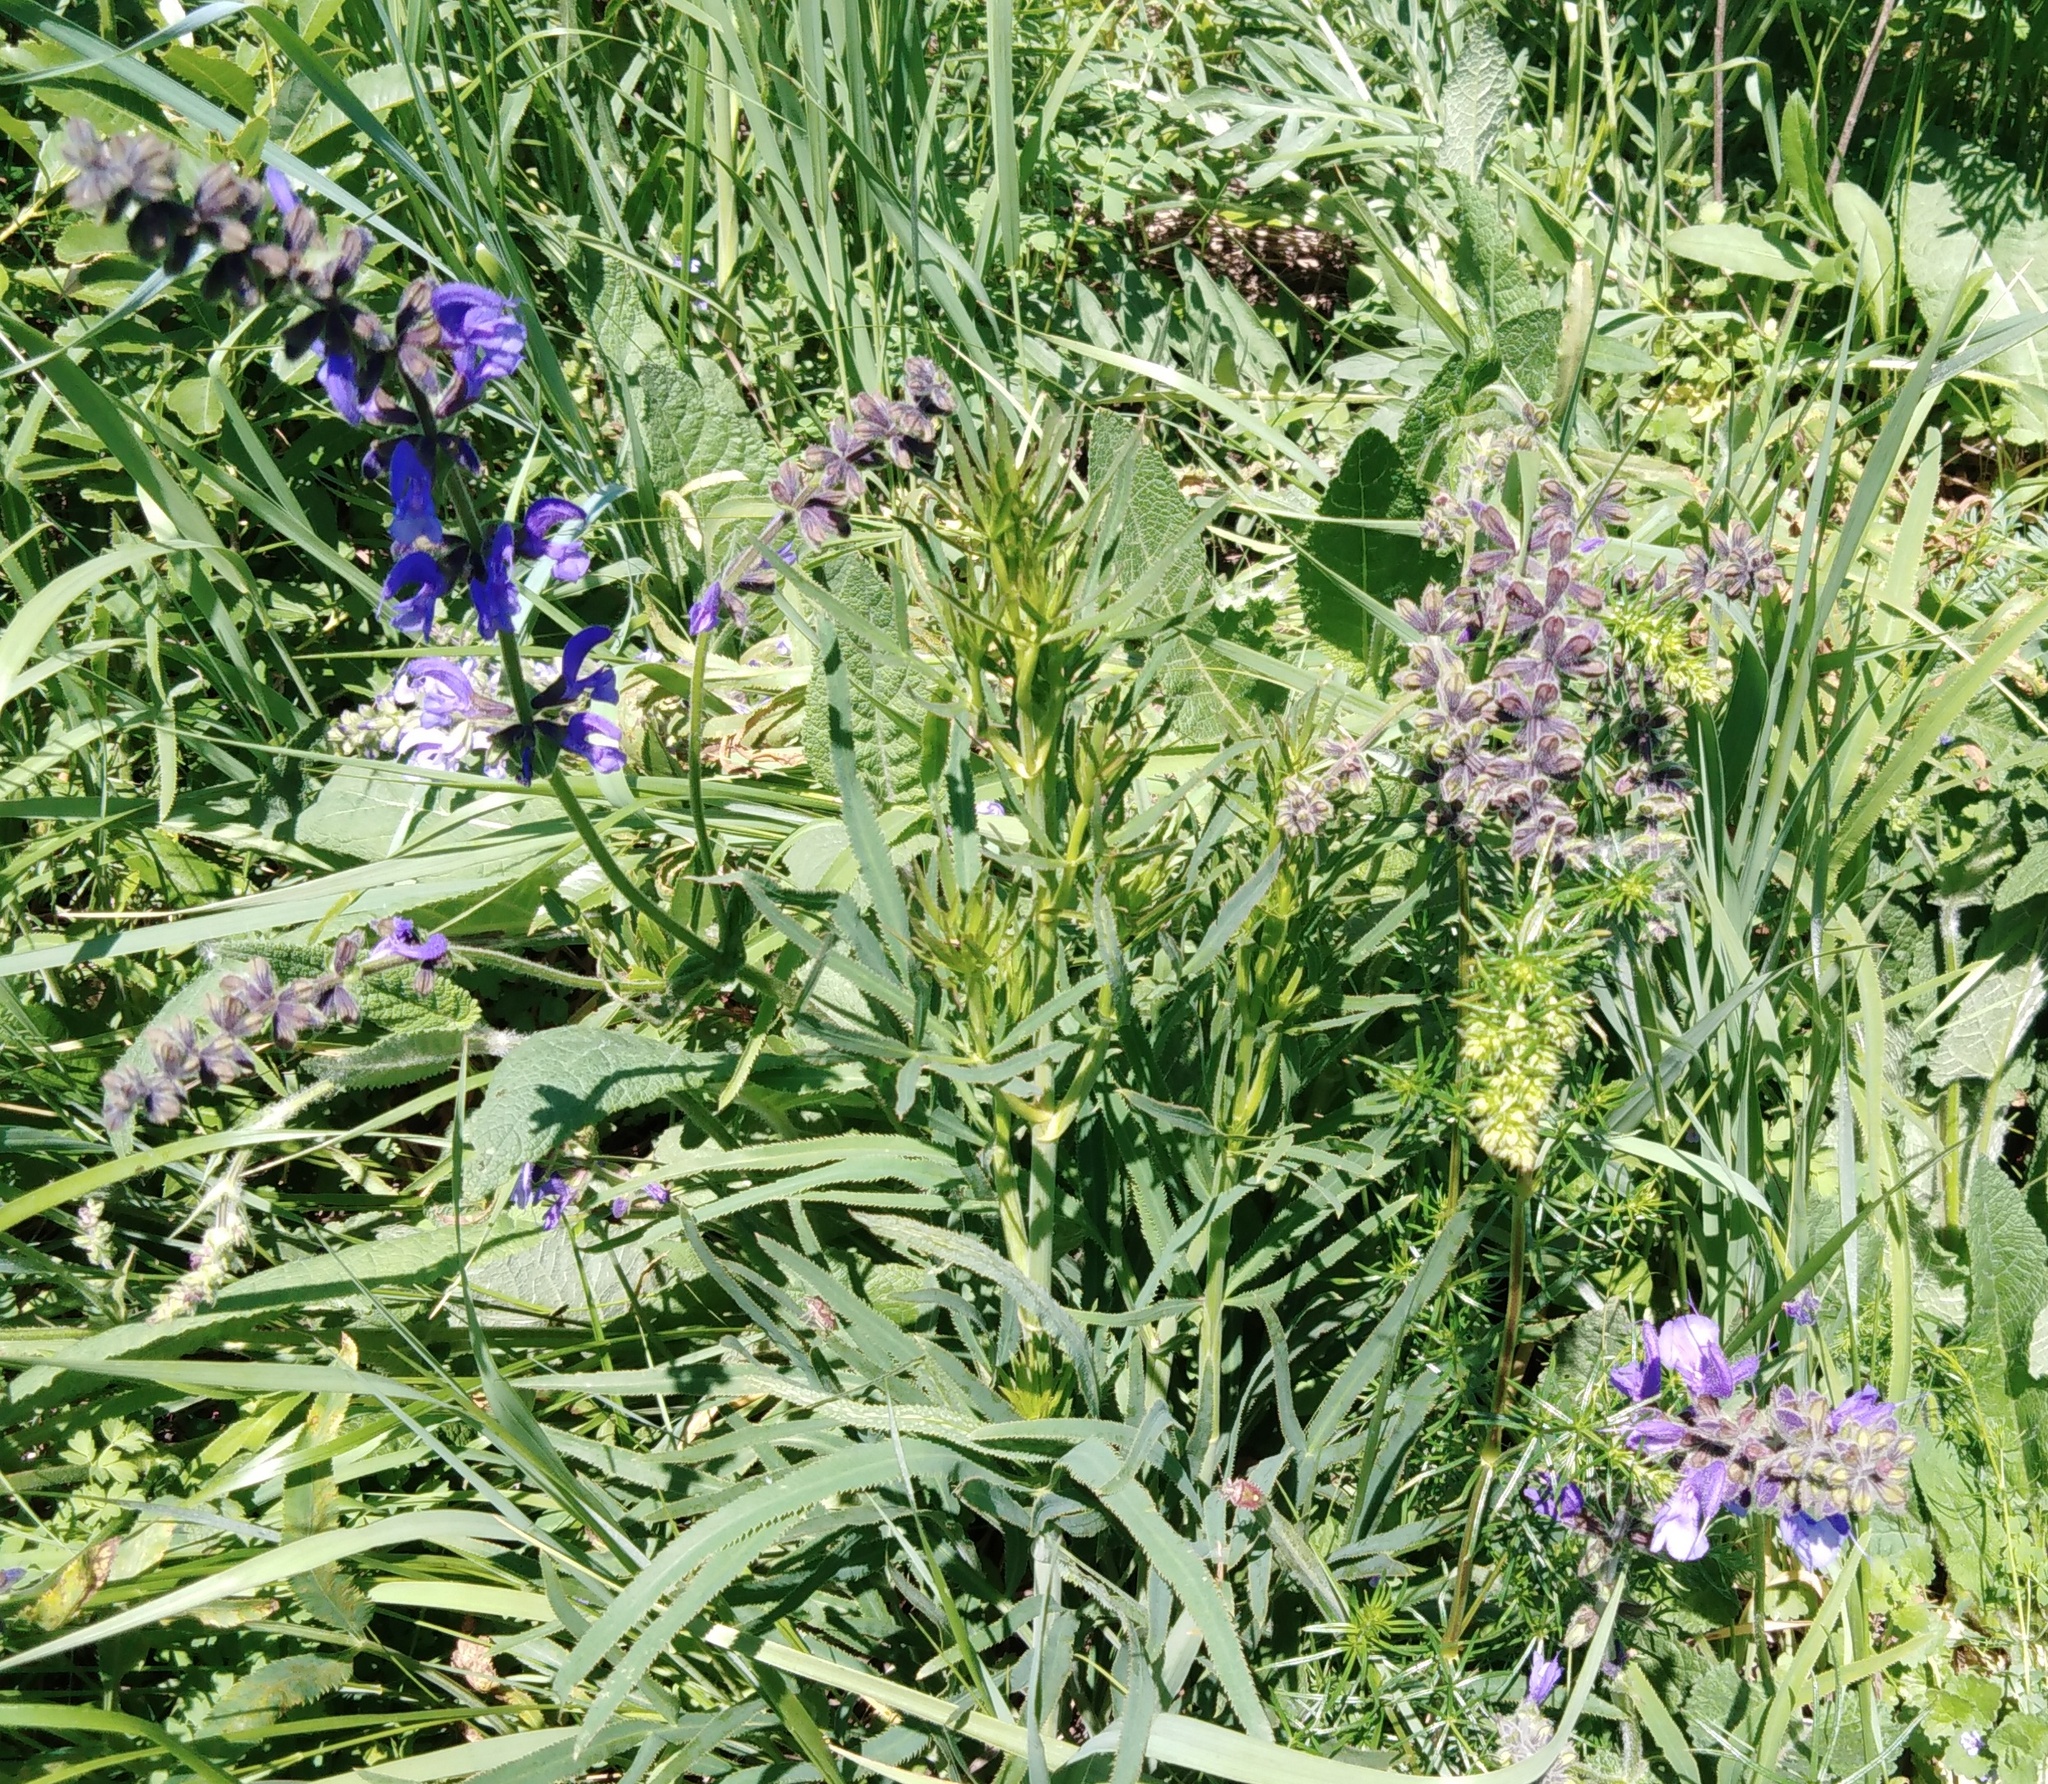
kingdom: Plantae
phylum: Tracheophyta
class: Magnoliopsida
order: Lamiales
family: Lamiaceae
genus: Salvia
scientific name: Salvia pratensis
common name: Meadow sage
